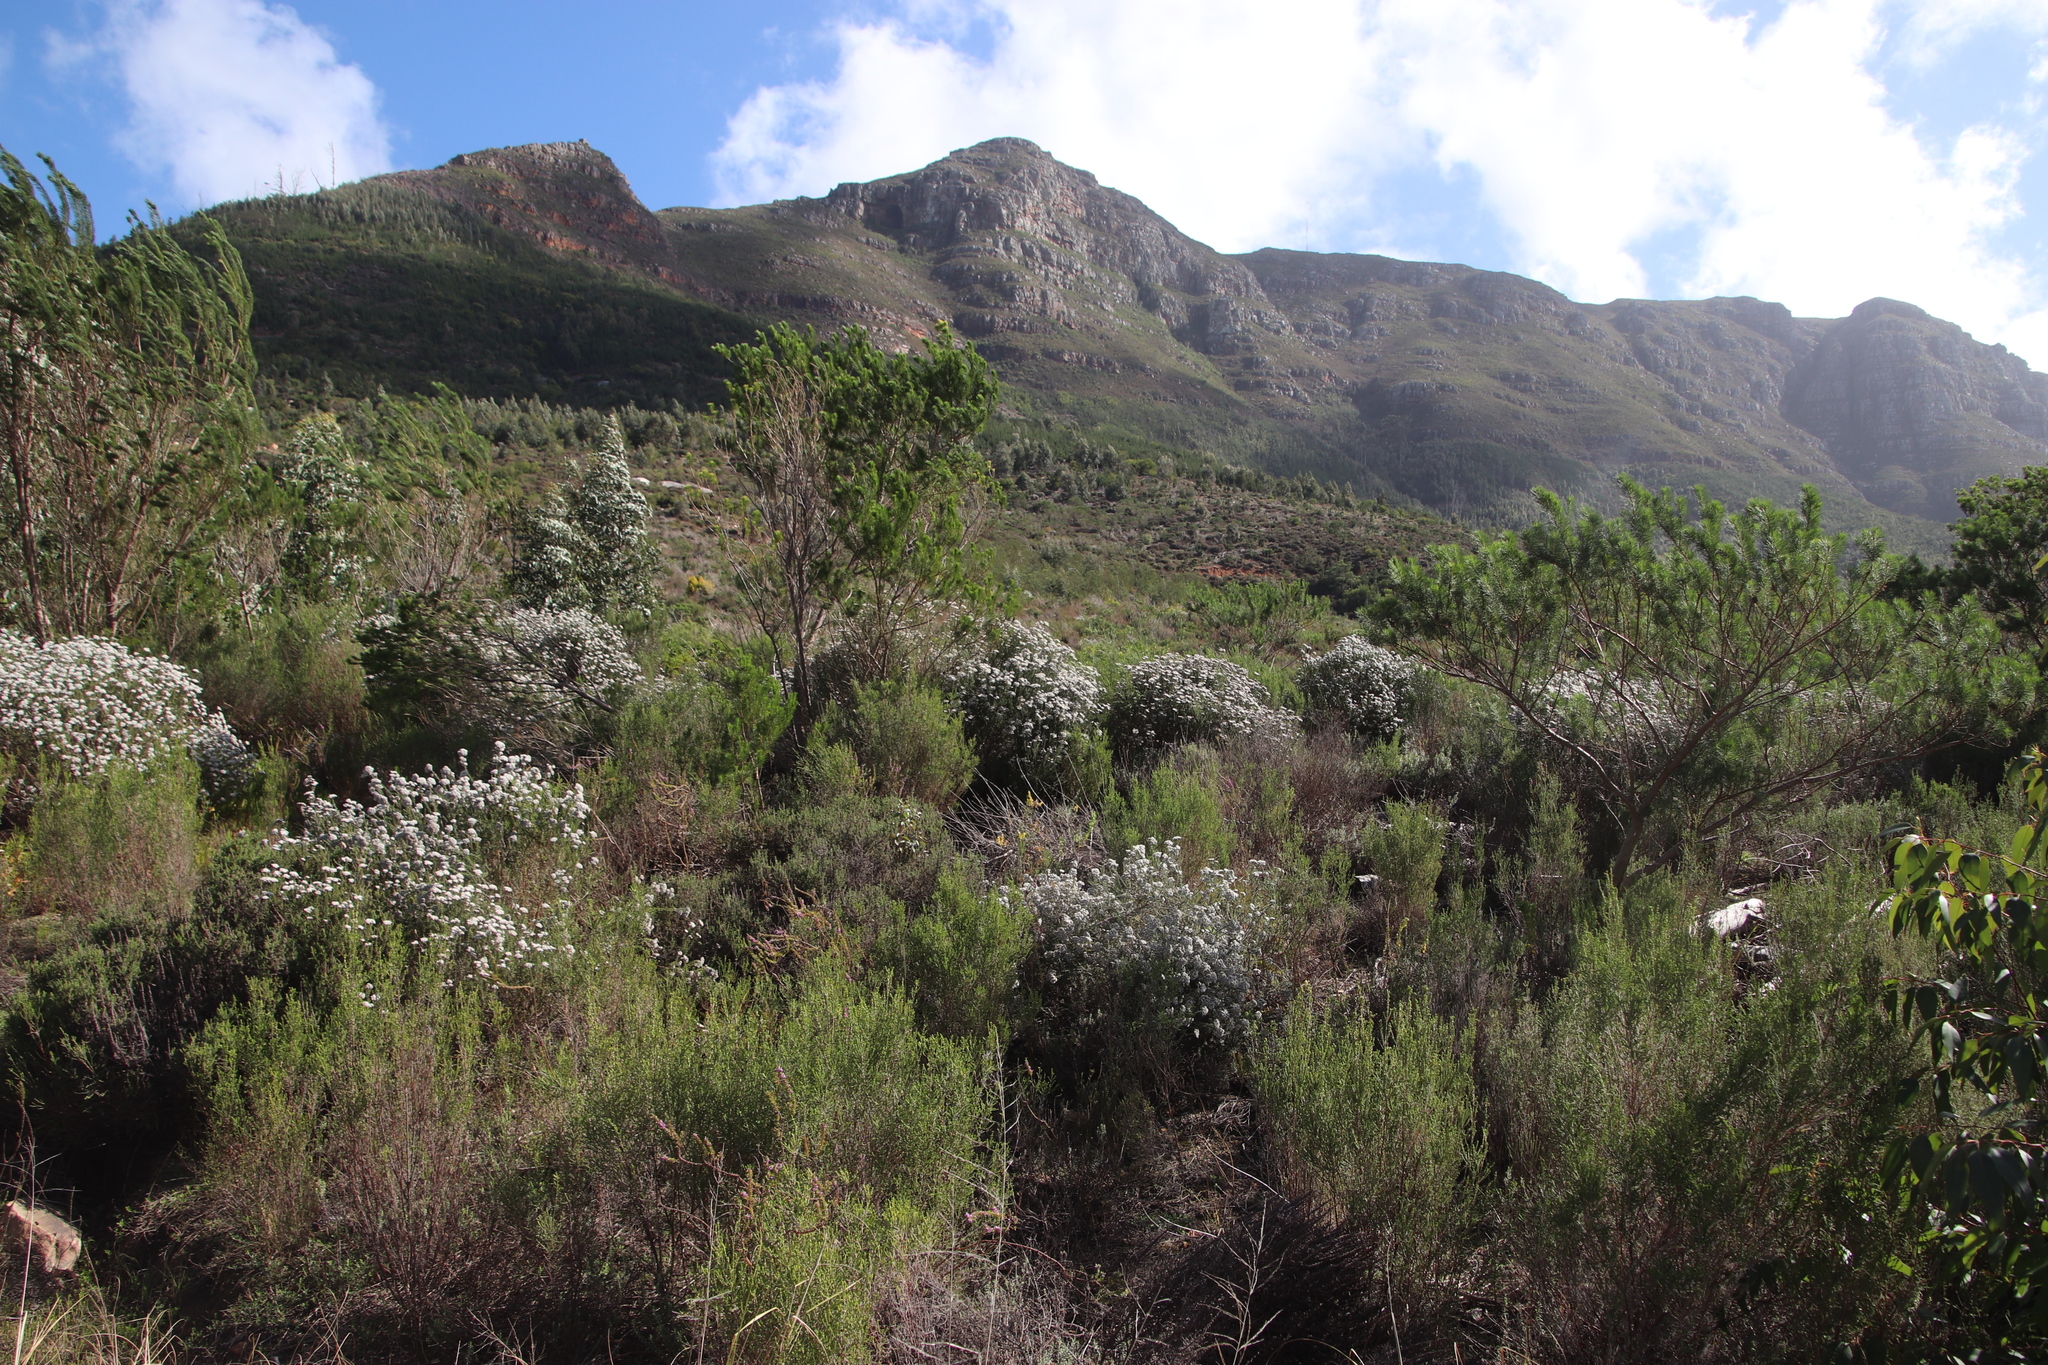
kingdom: Plantae
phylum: Tracheophyta
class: Magnoliopsida
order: Fabales
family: Fabaceae
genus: Psoralea
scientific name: Psoralea pinnata
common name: African scurfpea
